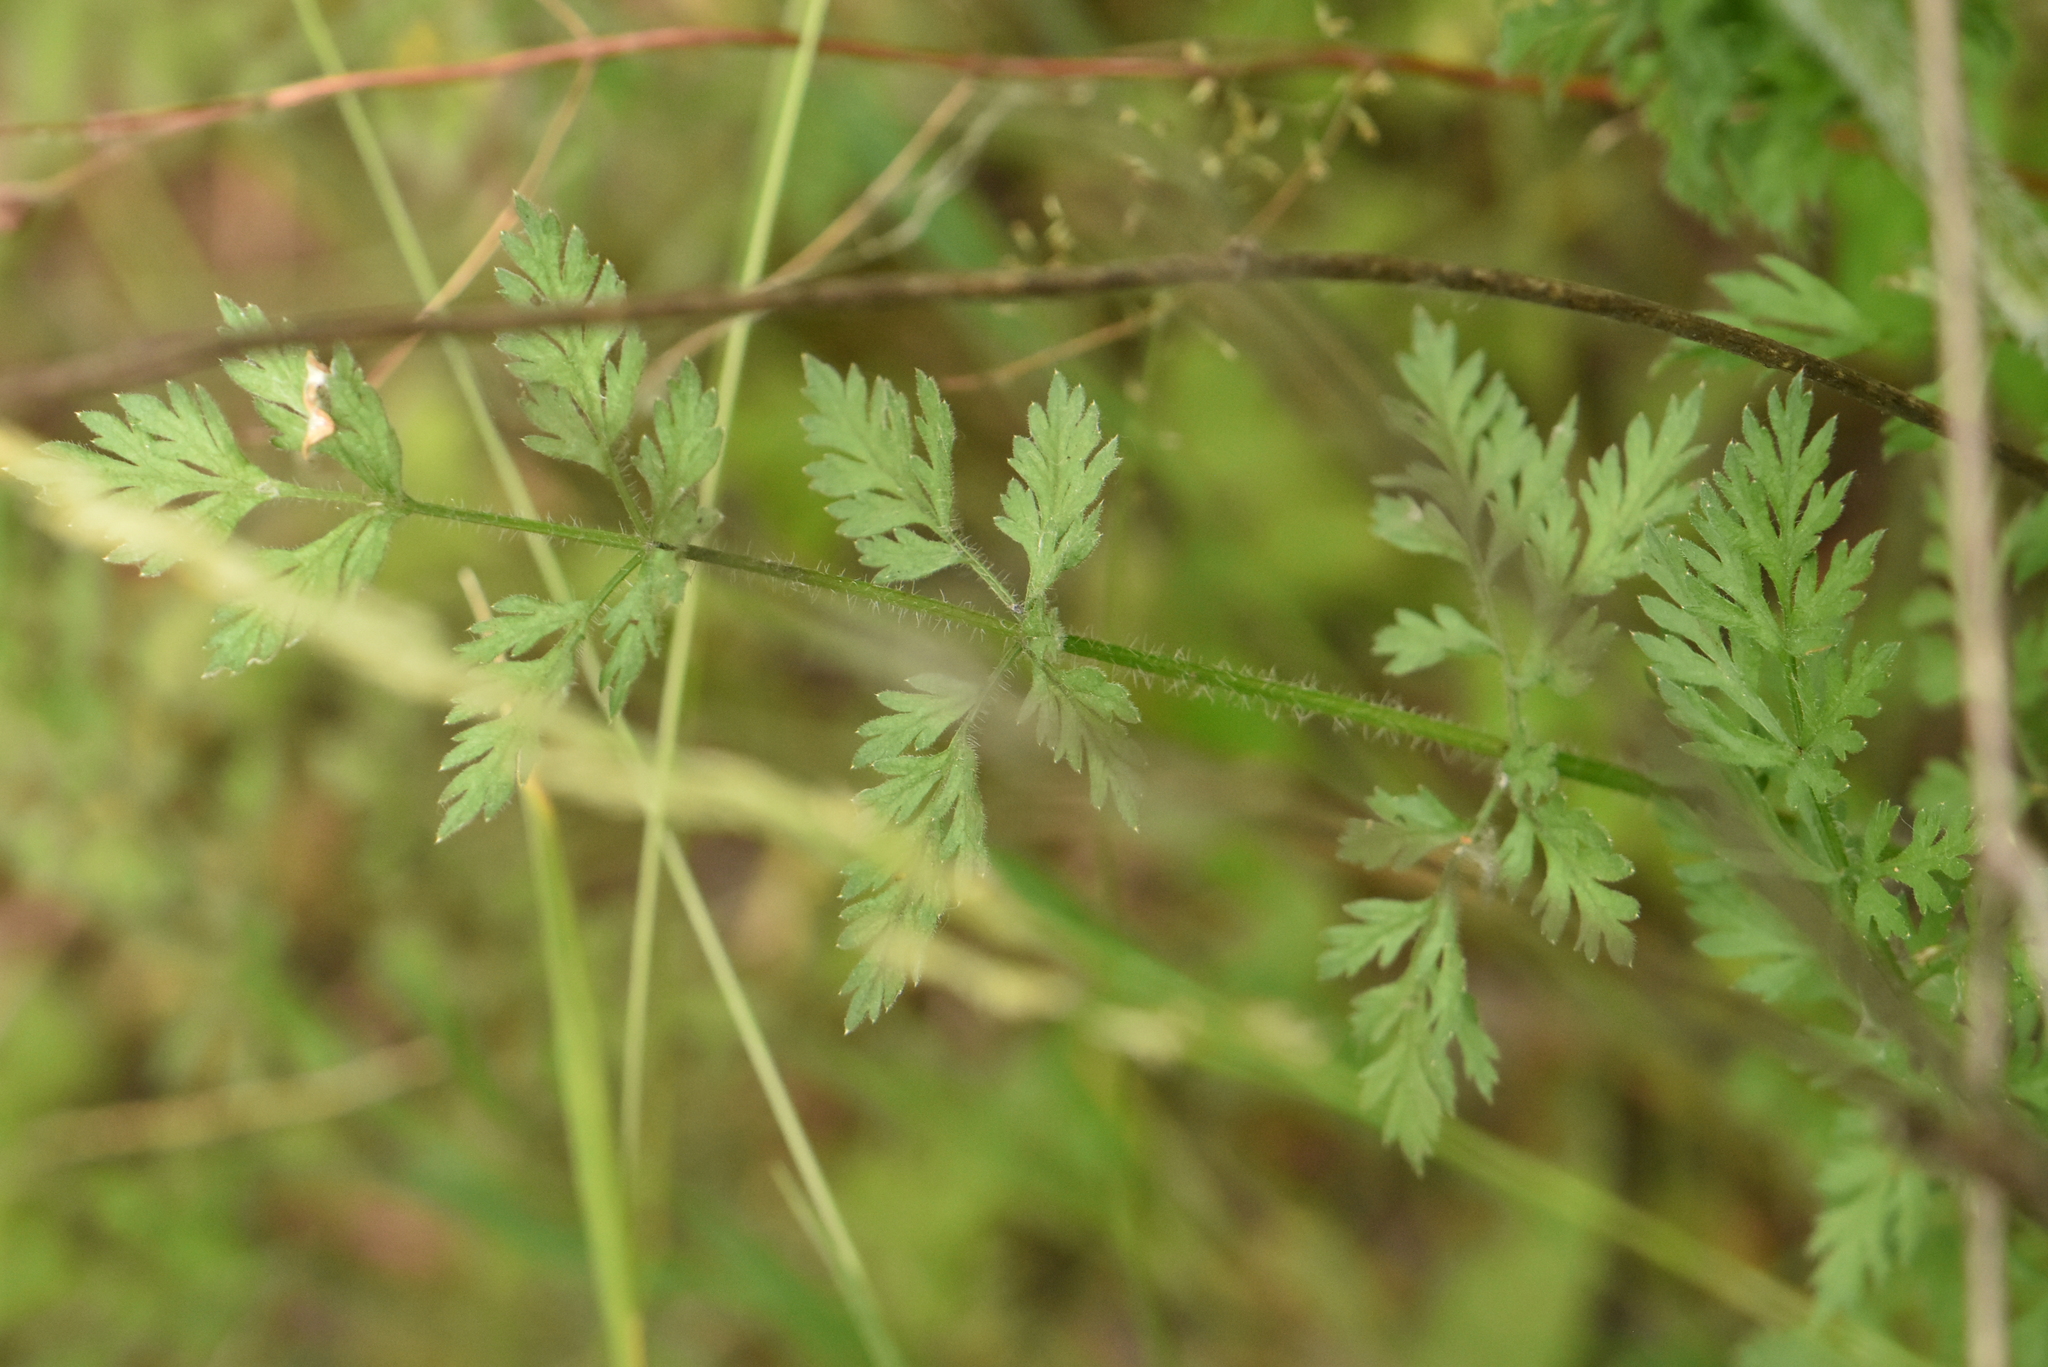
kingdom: Plantae
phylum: Tracheophyta
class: Magnoliopsida
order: Apiales
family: Apiaceae
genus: Daucus
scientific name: Daucus carota
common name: Wild carrot
